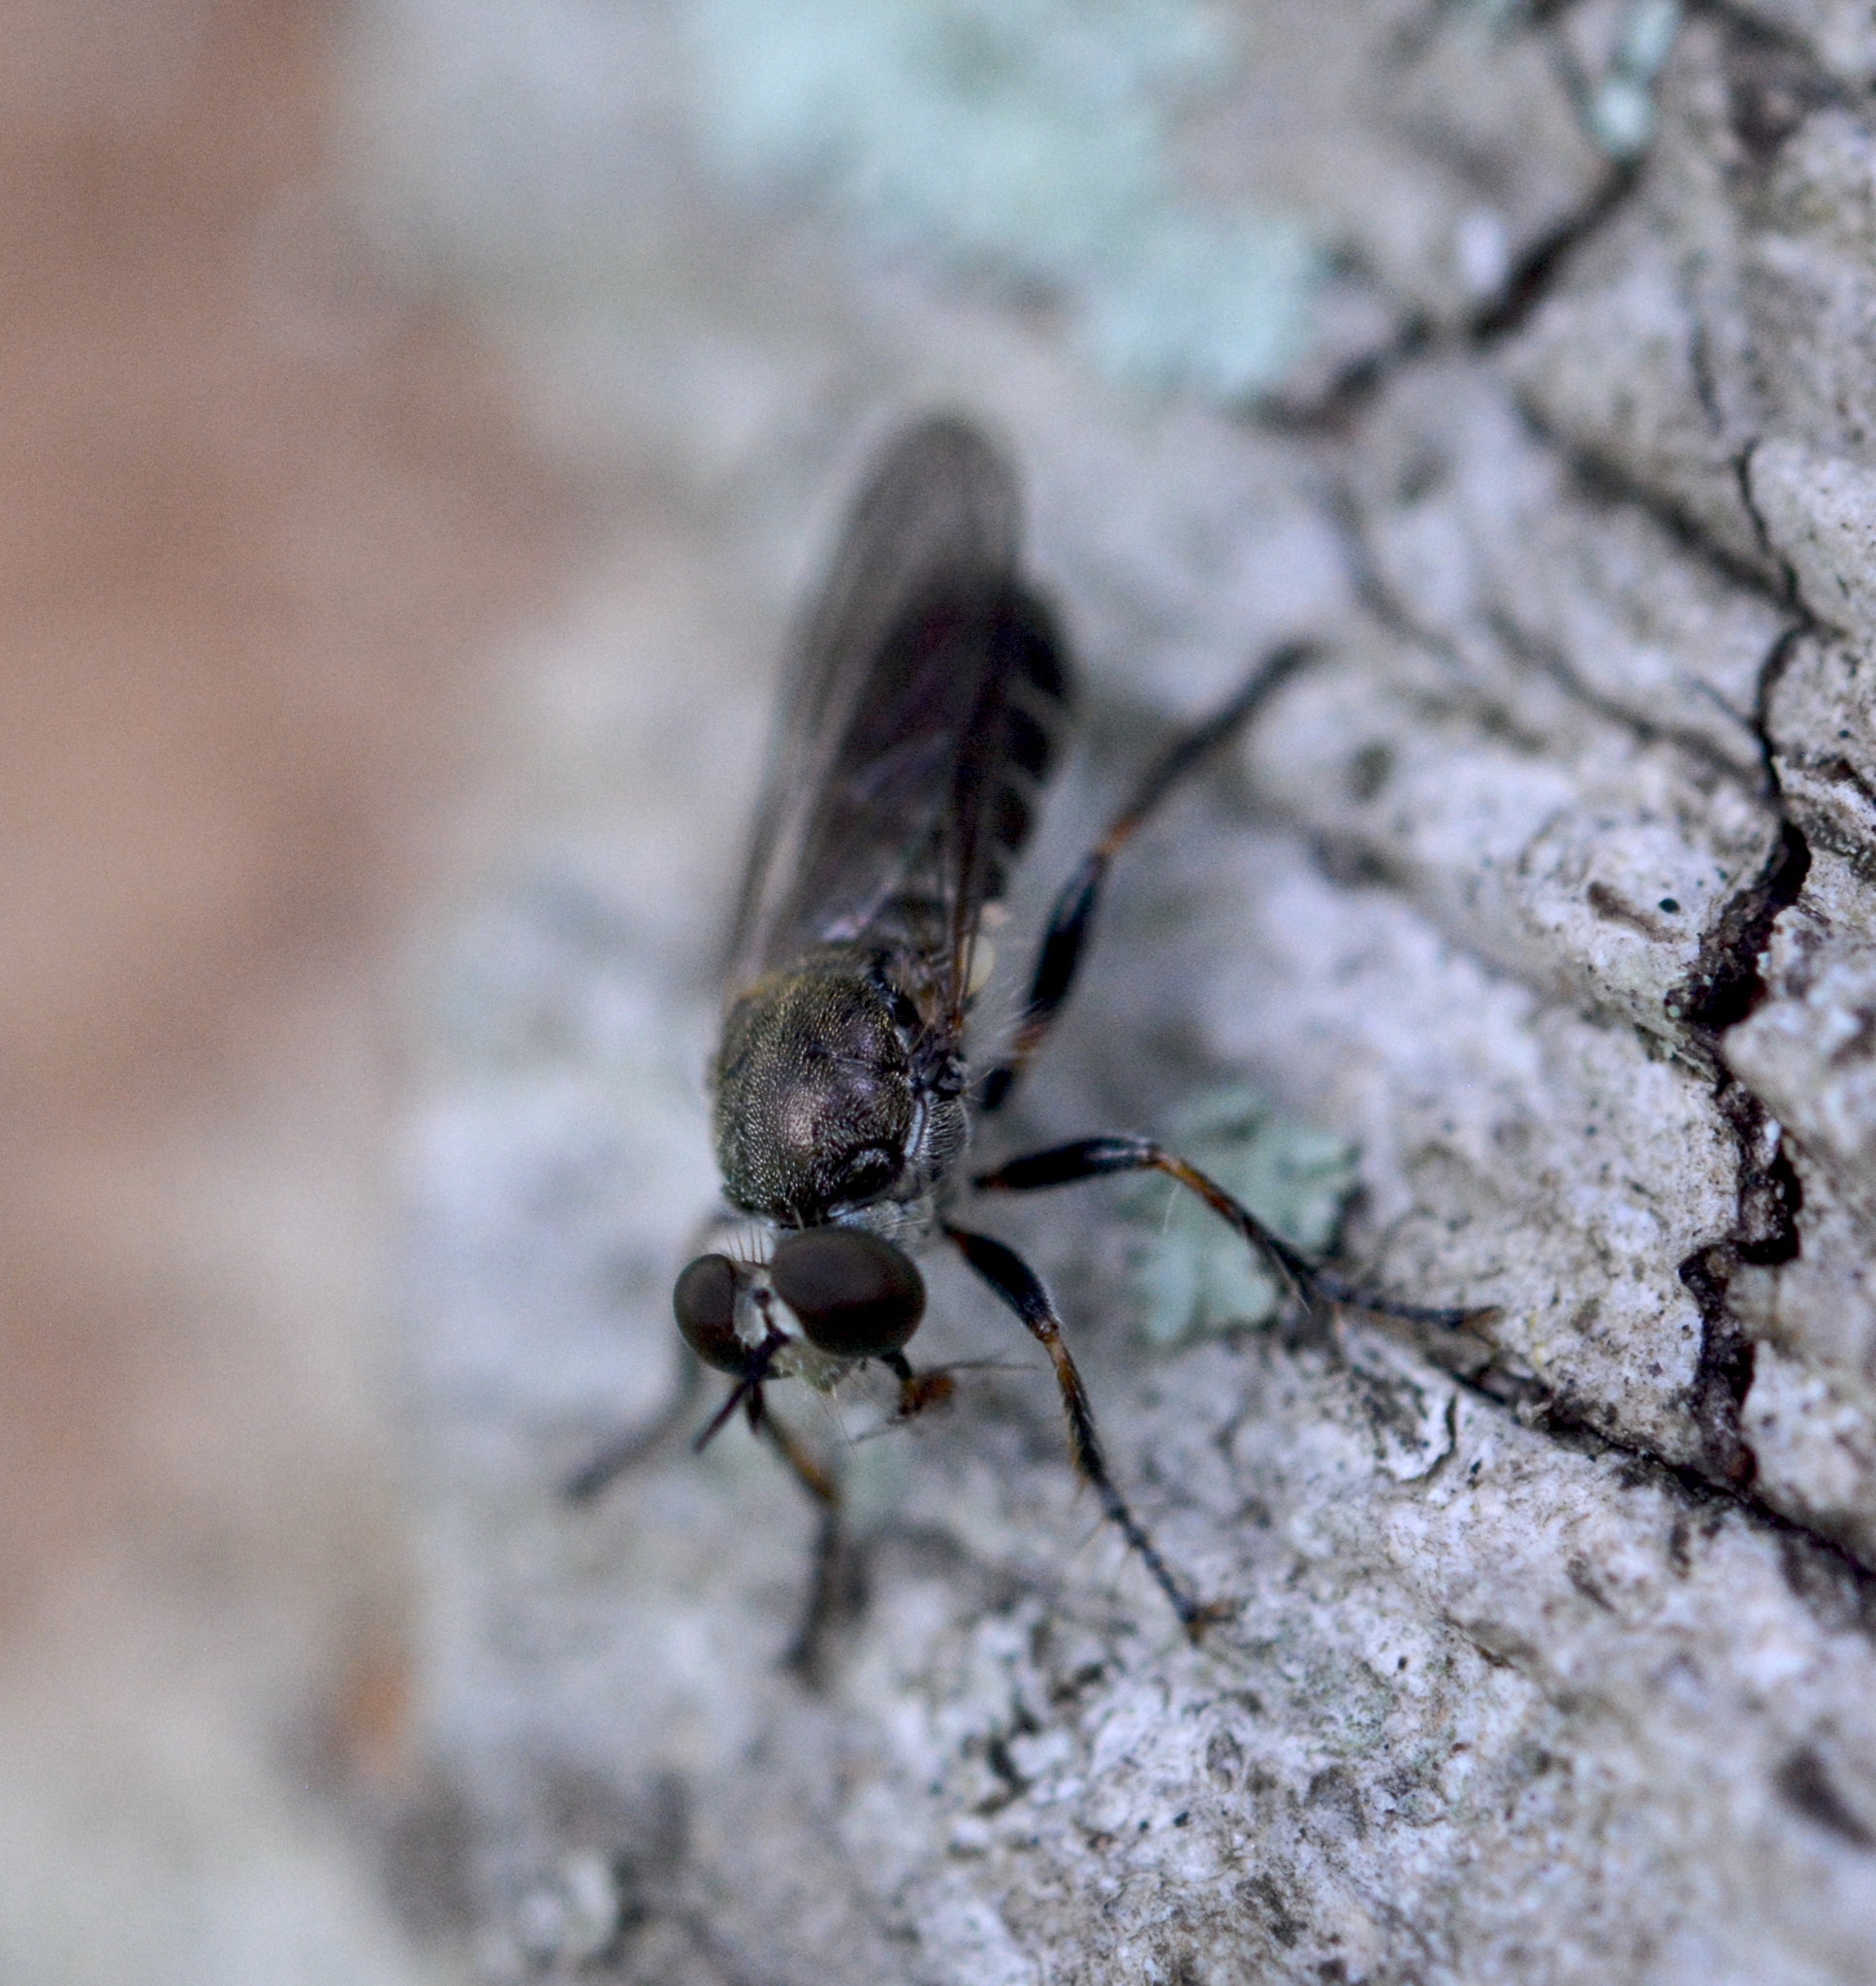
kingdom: Animalia
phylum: Arthropoda
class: Insecta
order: Diptera
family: Asilidae
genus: Atomosia
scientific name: Atomosia puella
